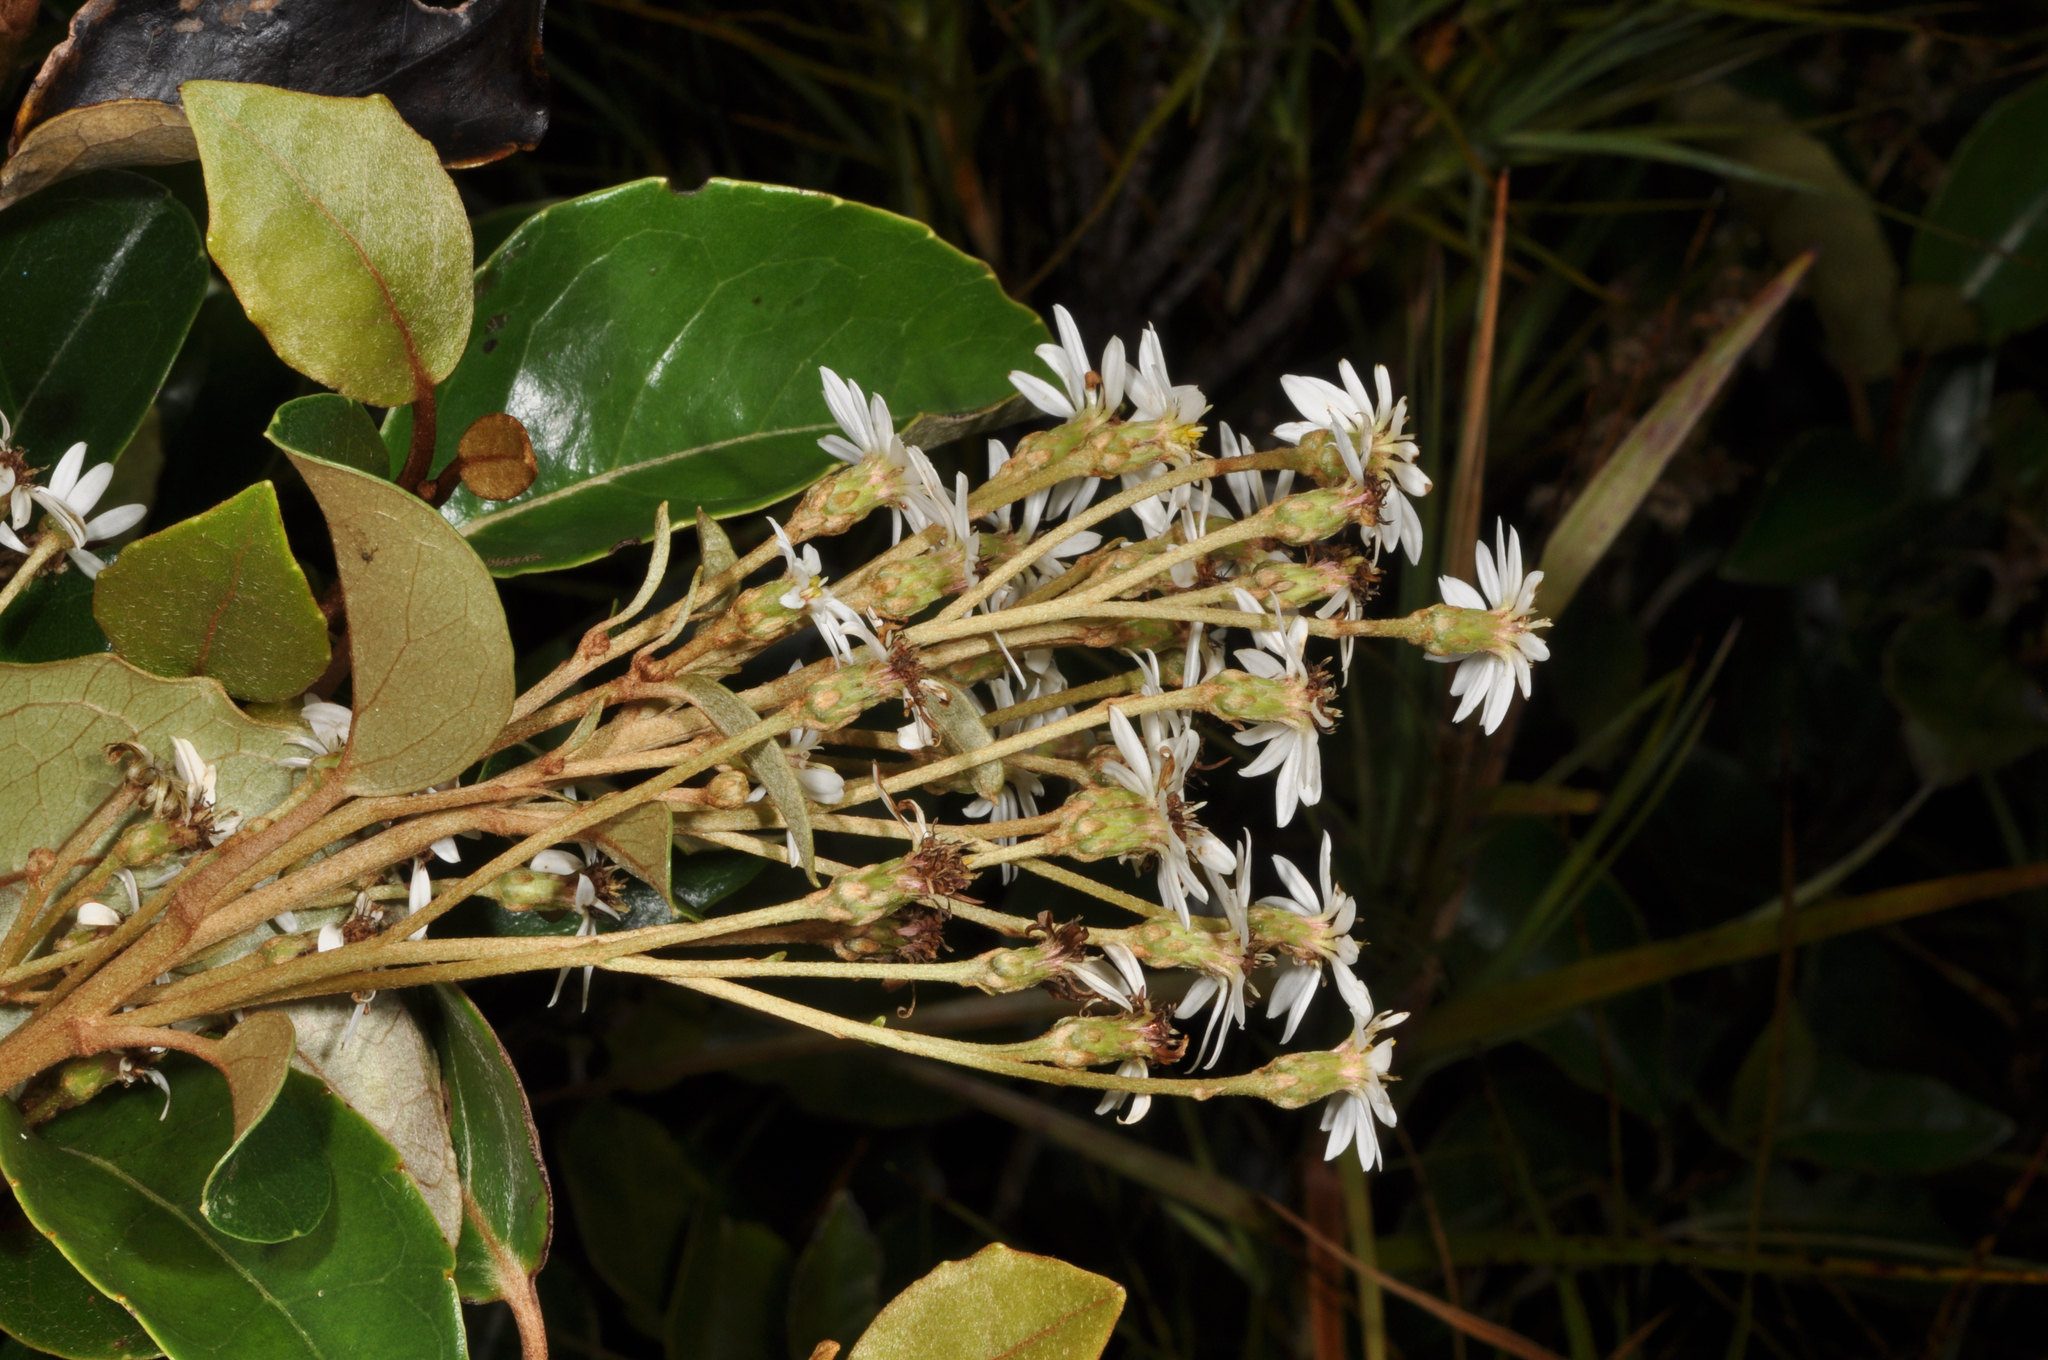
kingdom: Plantae
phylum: Tracheophyta
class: Magnoliopsida
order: Asterales
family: Asteraceae
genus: Olearia
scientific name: Olearia arborescens
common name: Glossy tree daisy
